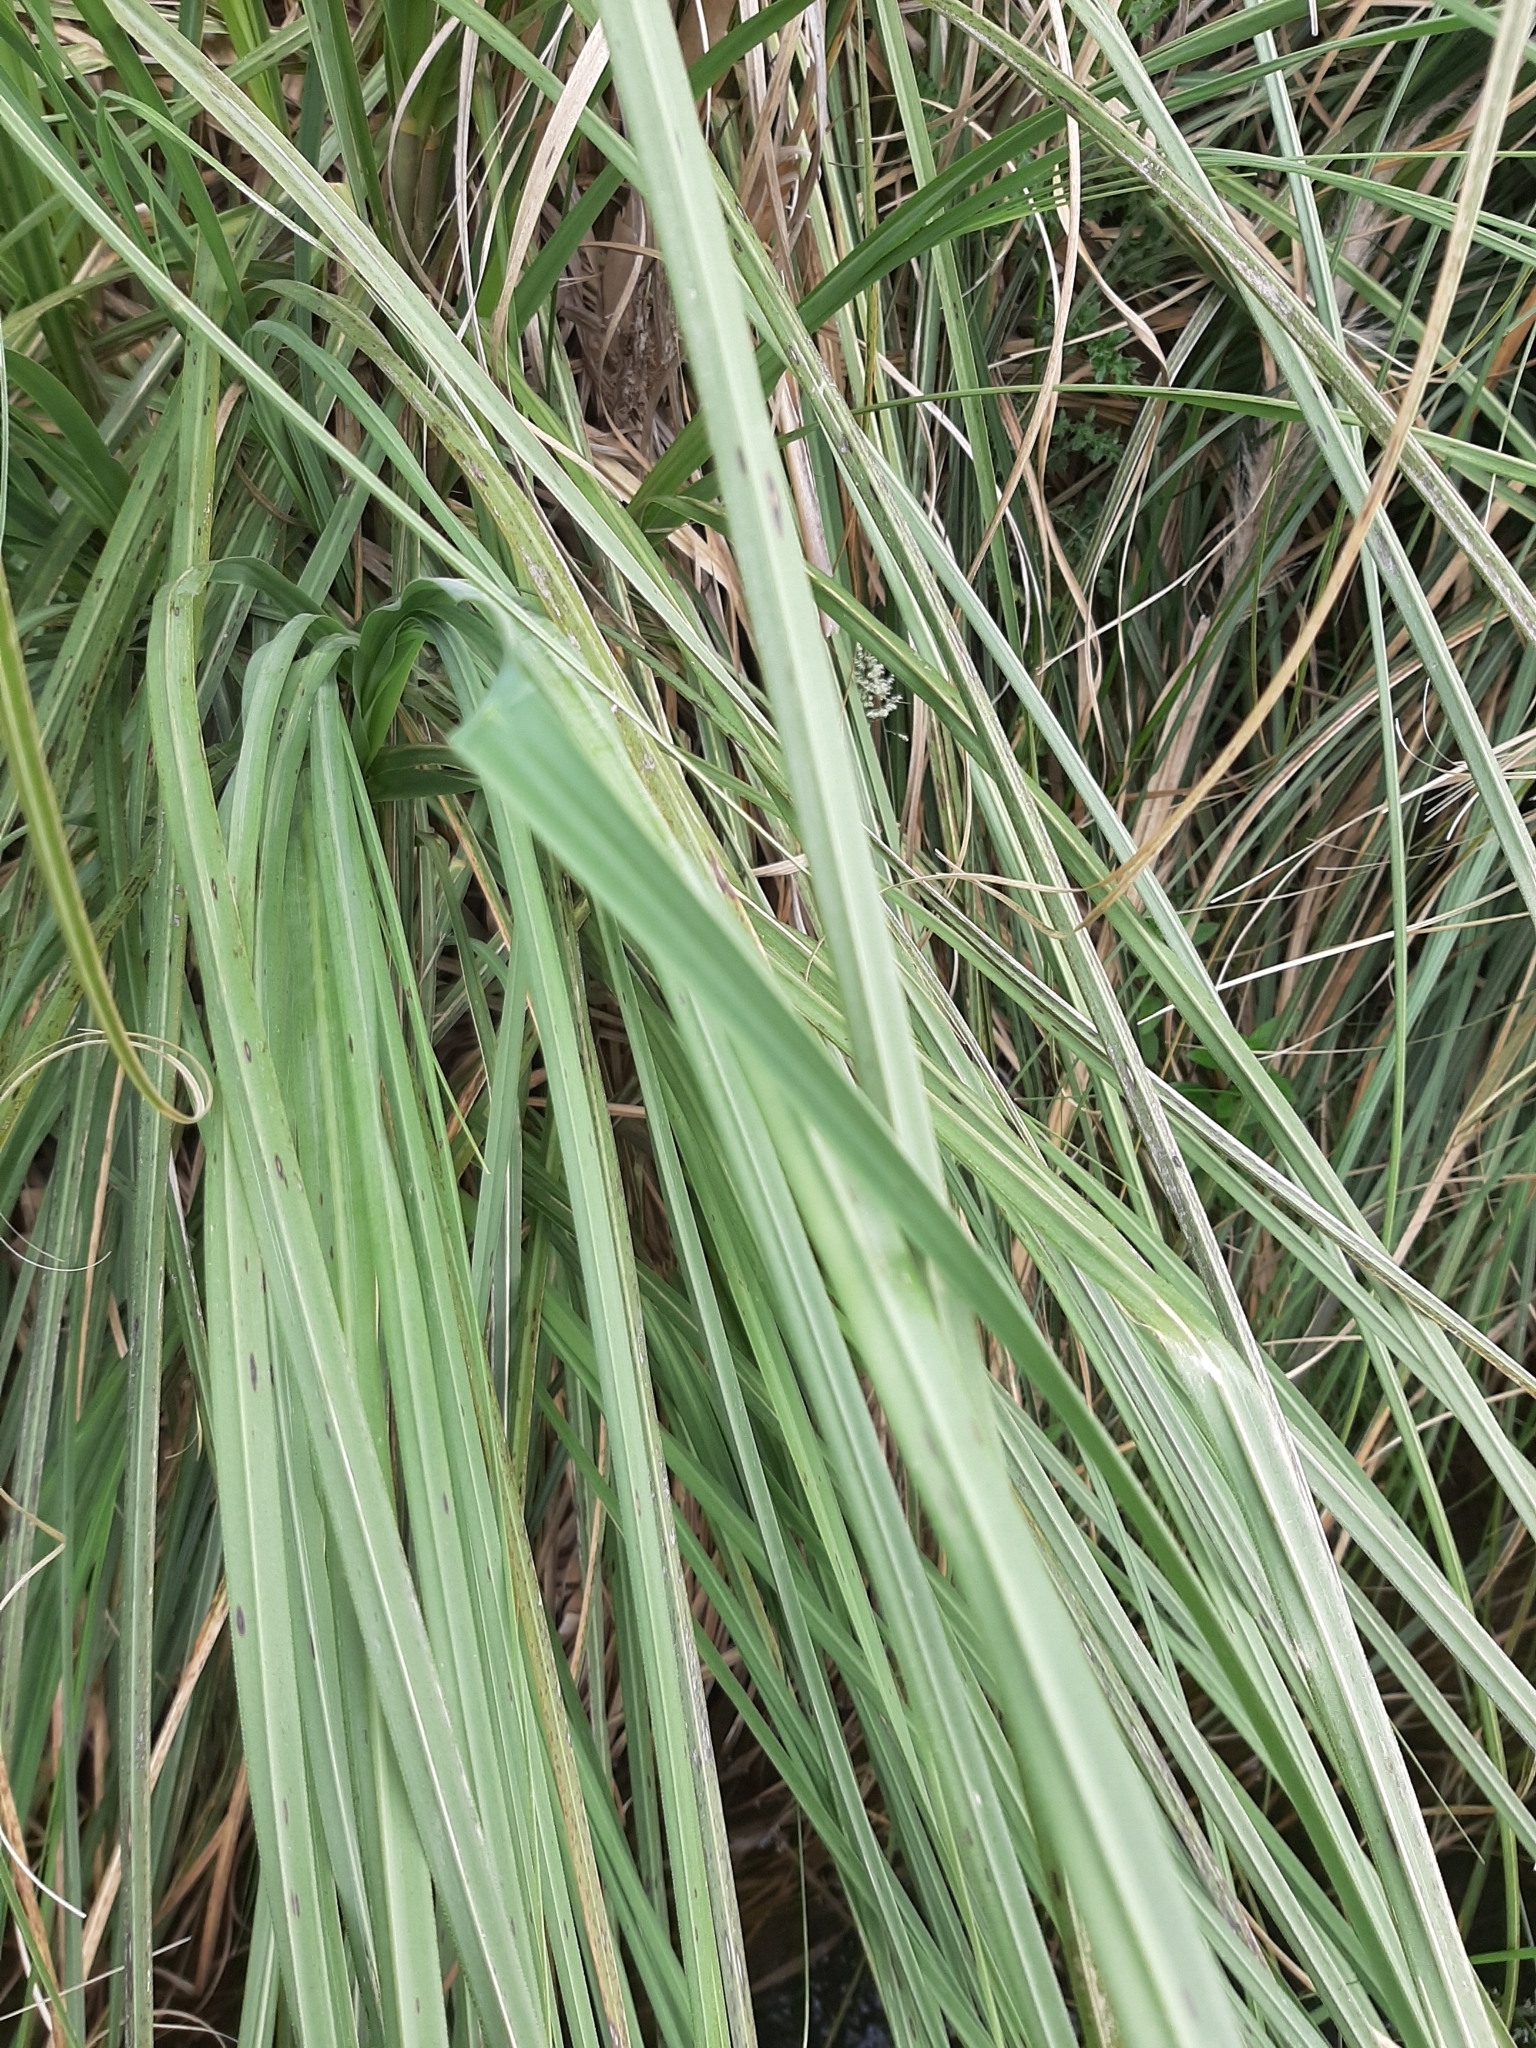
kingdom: Plantae
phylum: Tracheophyta
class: Liliopsida
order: Poales
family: Poaceae
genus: Cortaderia
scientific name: Cortaderia selloana
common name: Uruguayan pampas grass
